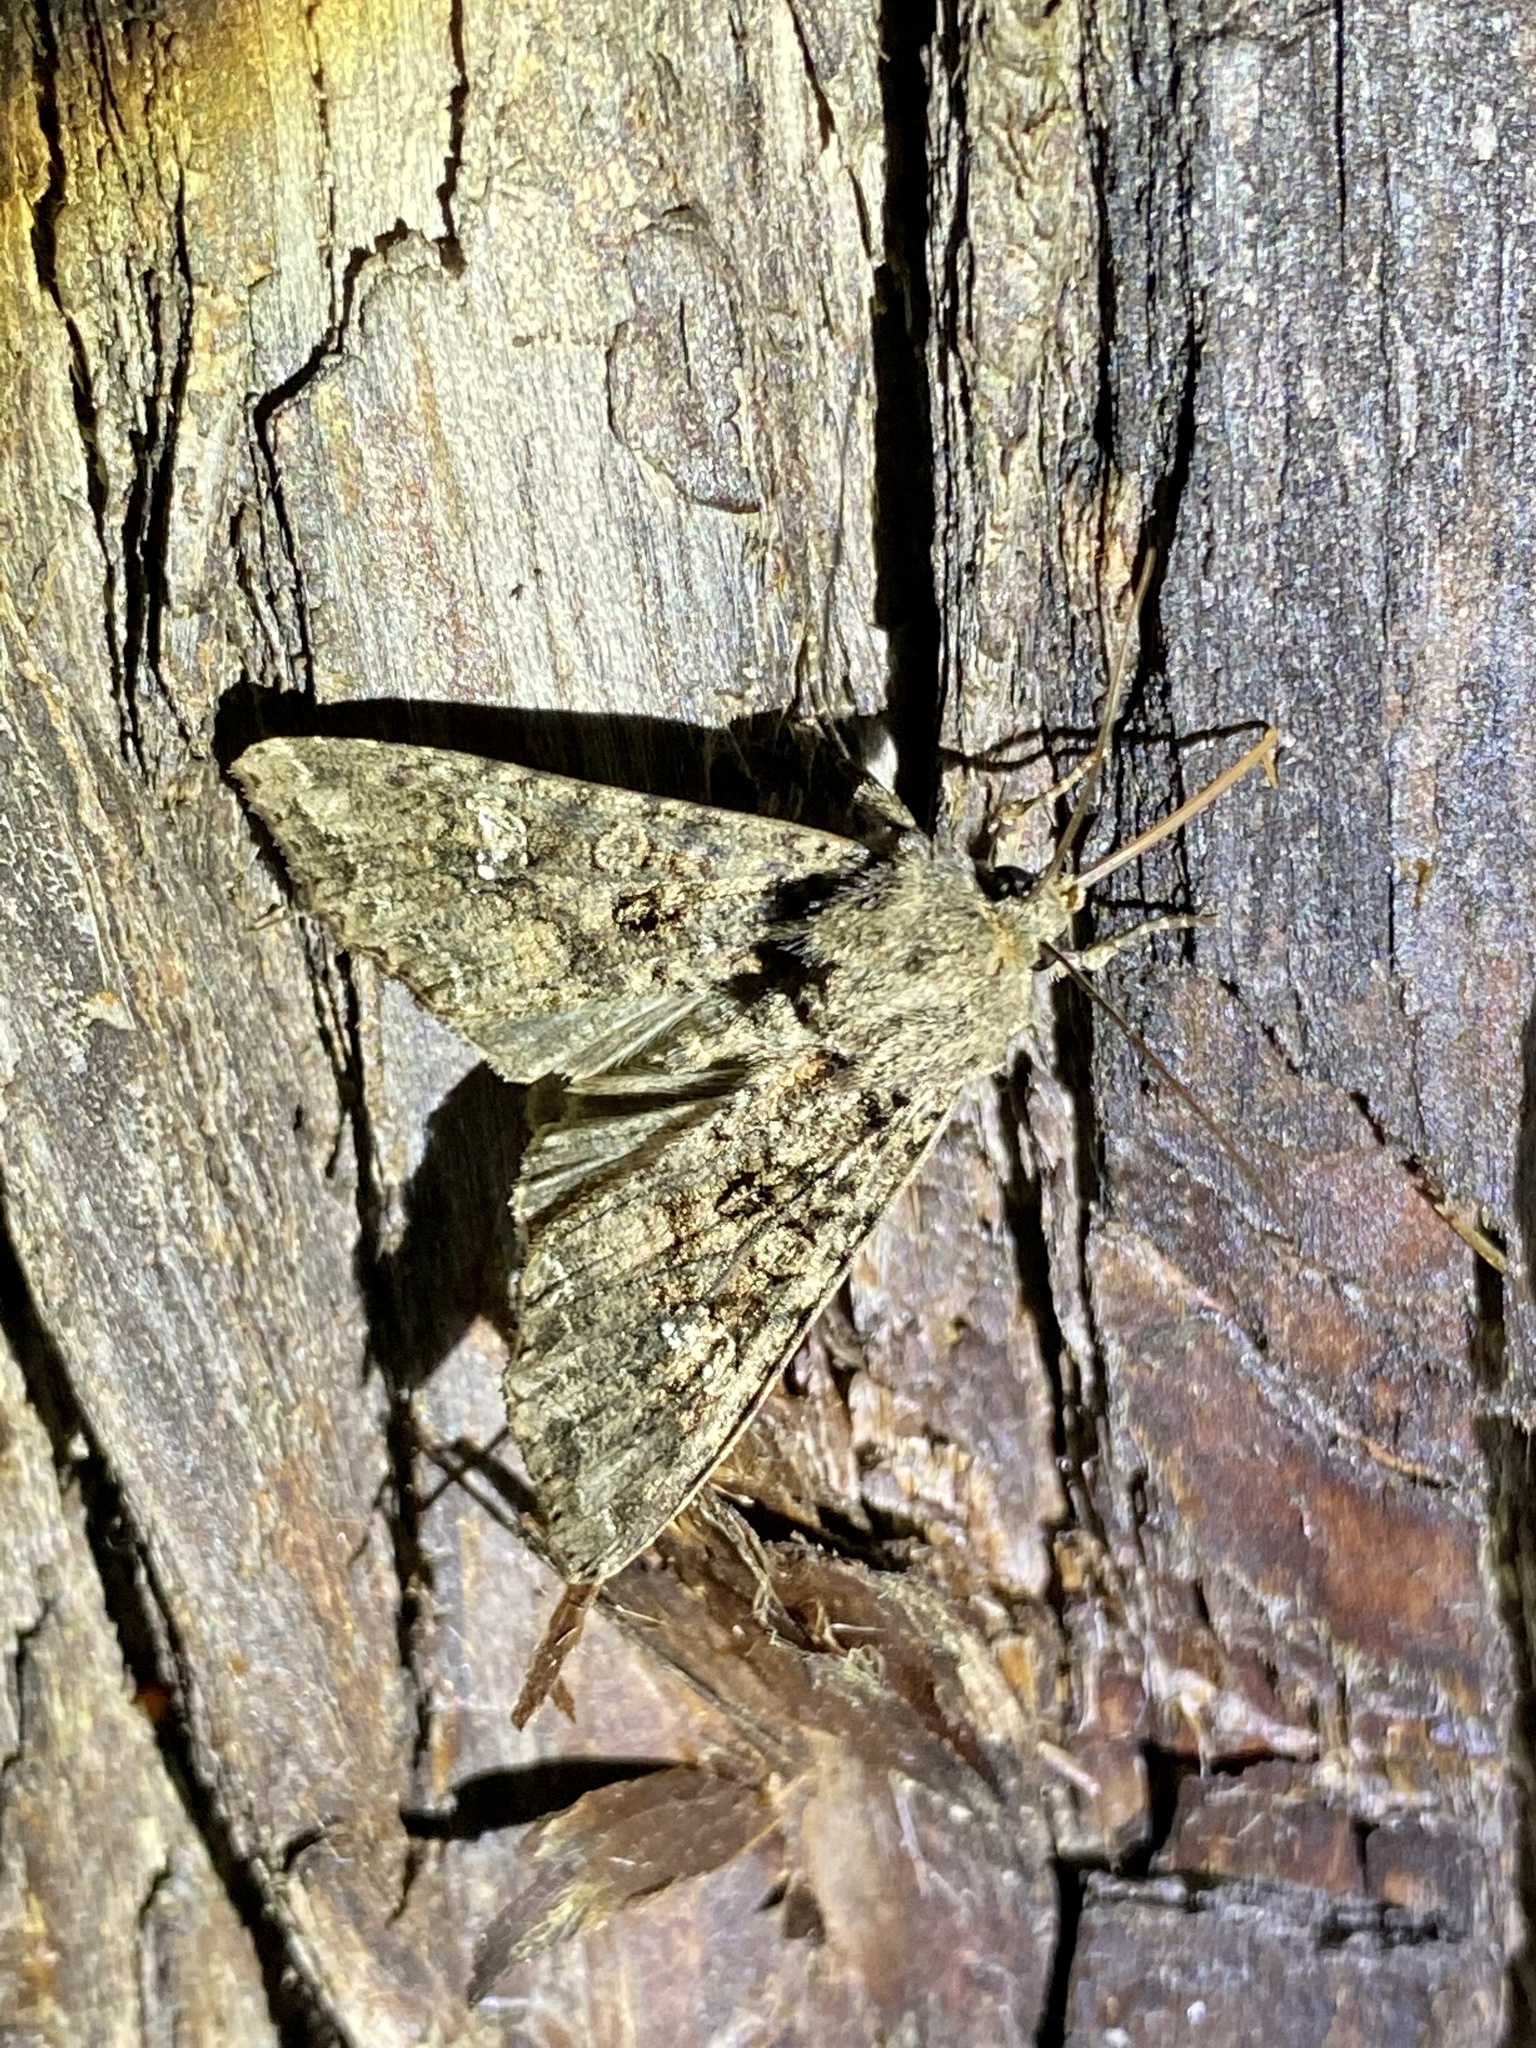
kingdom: Animalia
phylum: Arthropoda
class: Insecta
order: Lepidoptera
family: Noctuidae
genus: Mamestra
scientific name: Mamestra brassicae
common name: Cabbage moth
